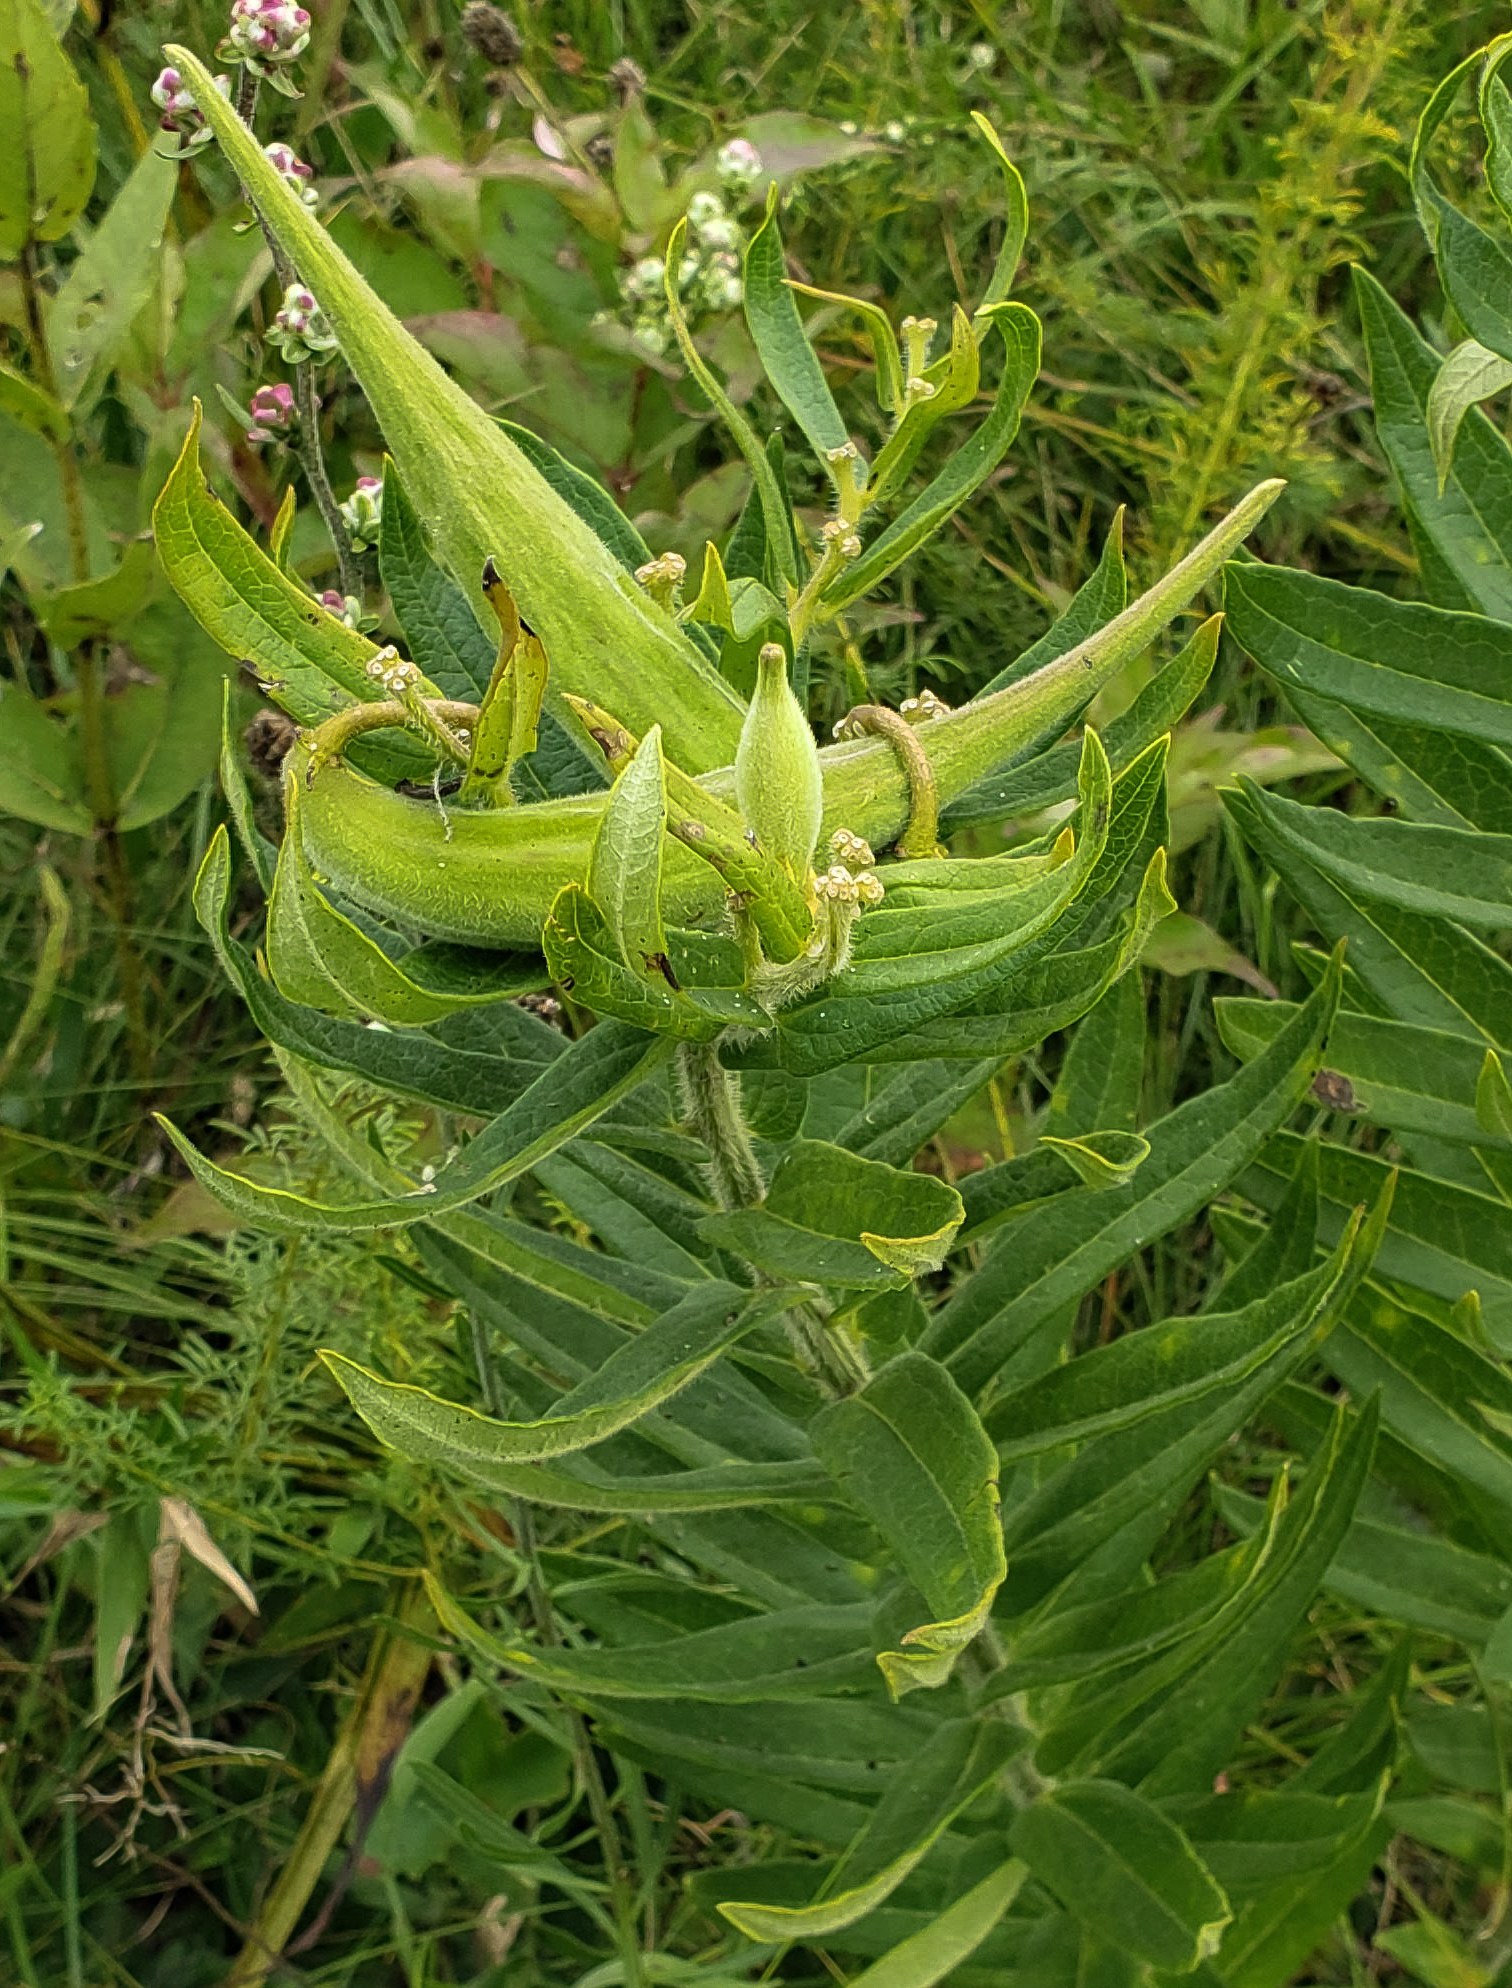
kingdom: Plantae
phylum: Tracheophyta
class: Magnoliopsida
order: Gentianales
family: Apocynaceae
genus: Asclepias
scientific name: Asclepias tuberosa
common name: Butterfly milkweed
